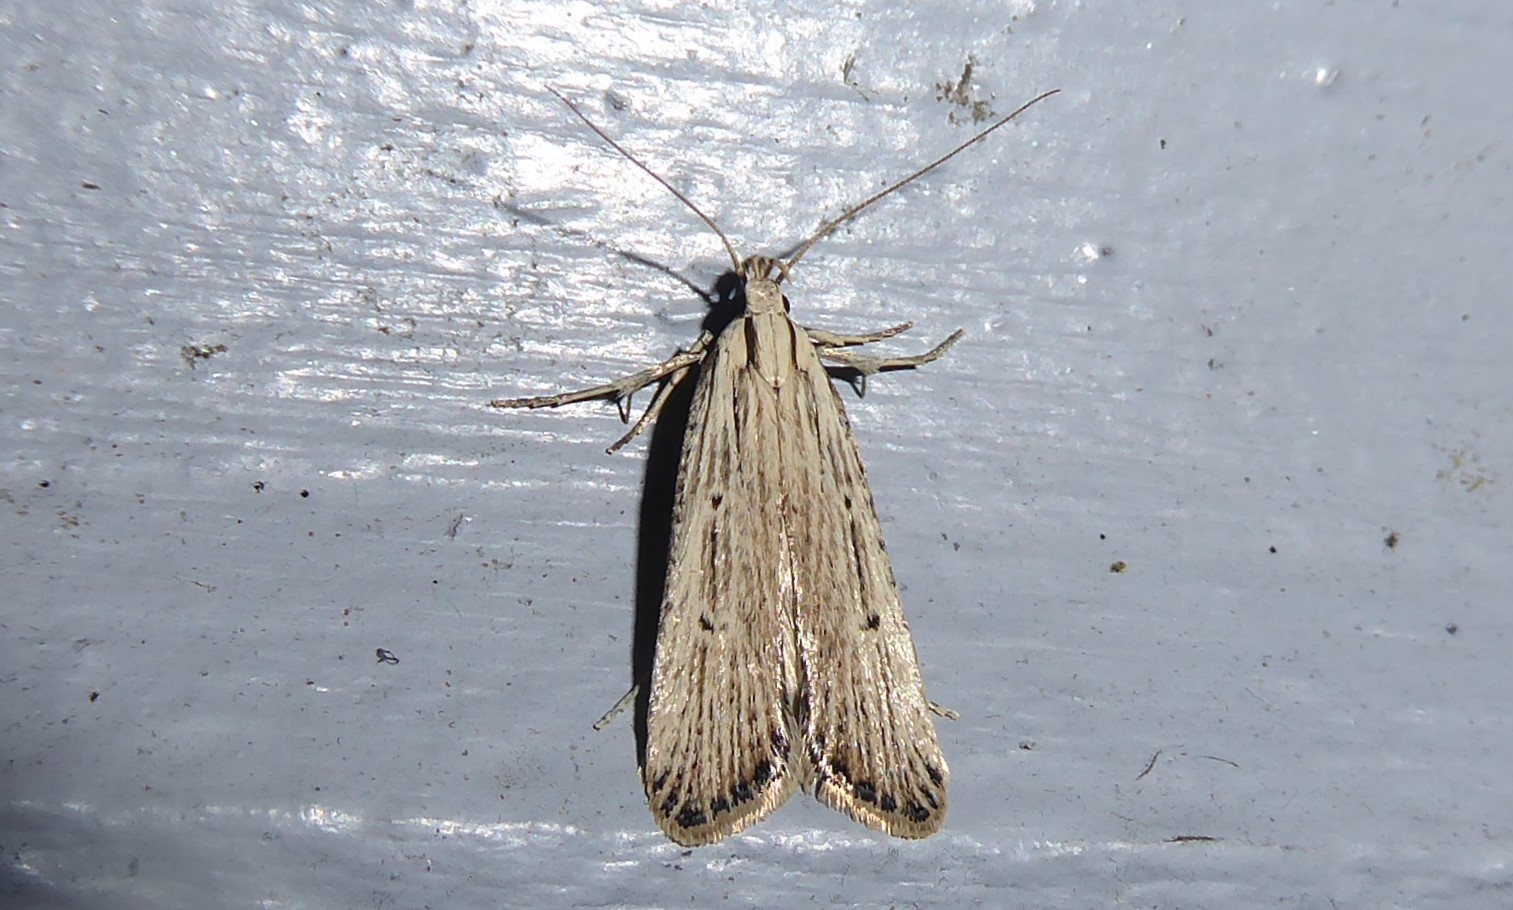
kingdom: Animalia
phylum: Arthropoda
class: Insecta
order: Lepidoptera
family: Gelechiidae
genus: Anisoplaca
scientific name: Anisoplaca ptyoptera
